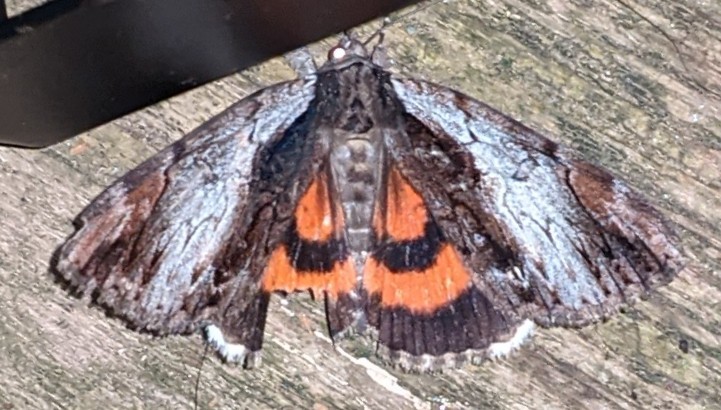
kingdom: Animalia
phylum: Arthropoda
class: Insecta
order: Lepidoptera
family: Erebidae
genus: Catocala
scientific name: Catocala ultronia
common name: Ultronia underwing
